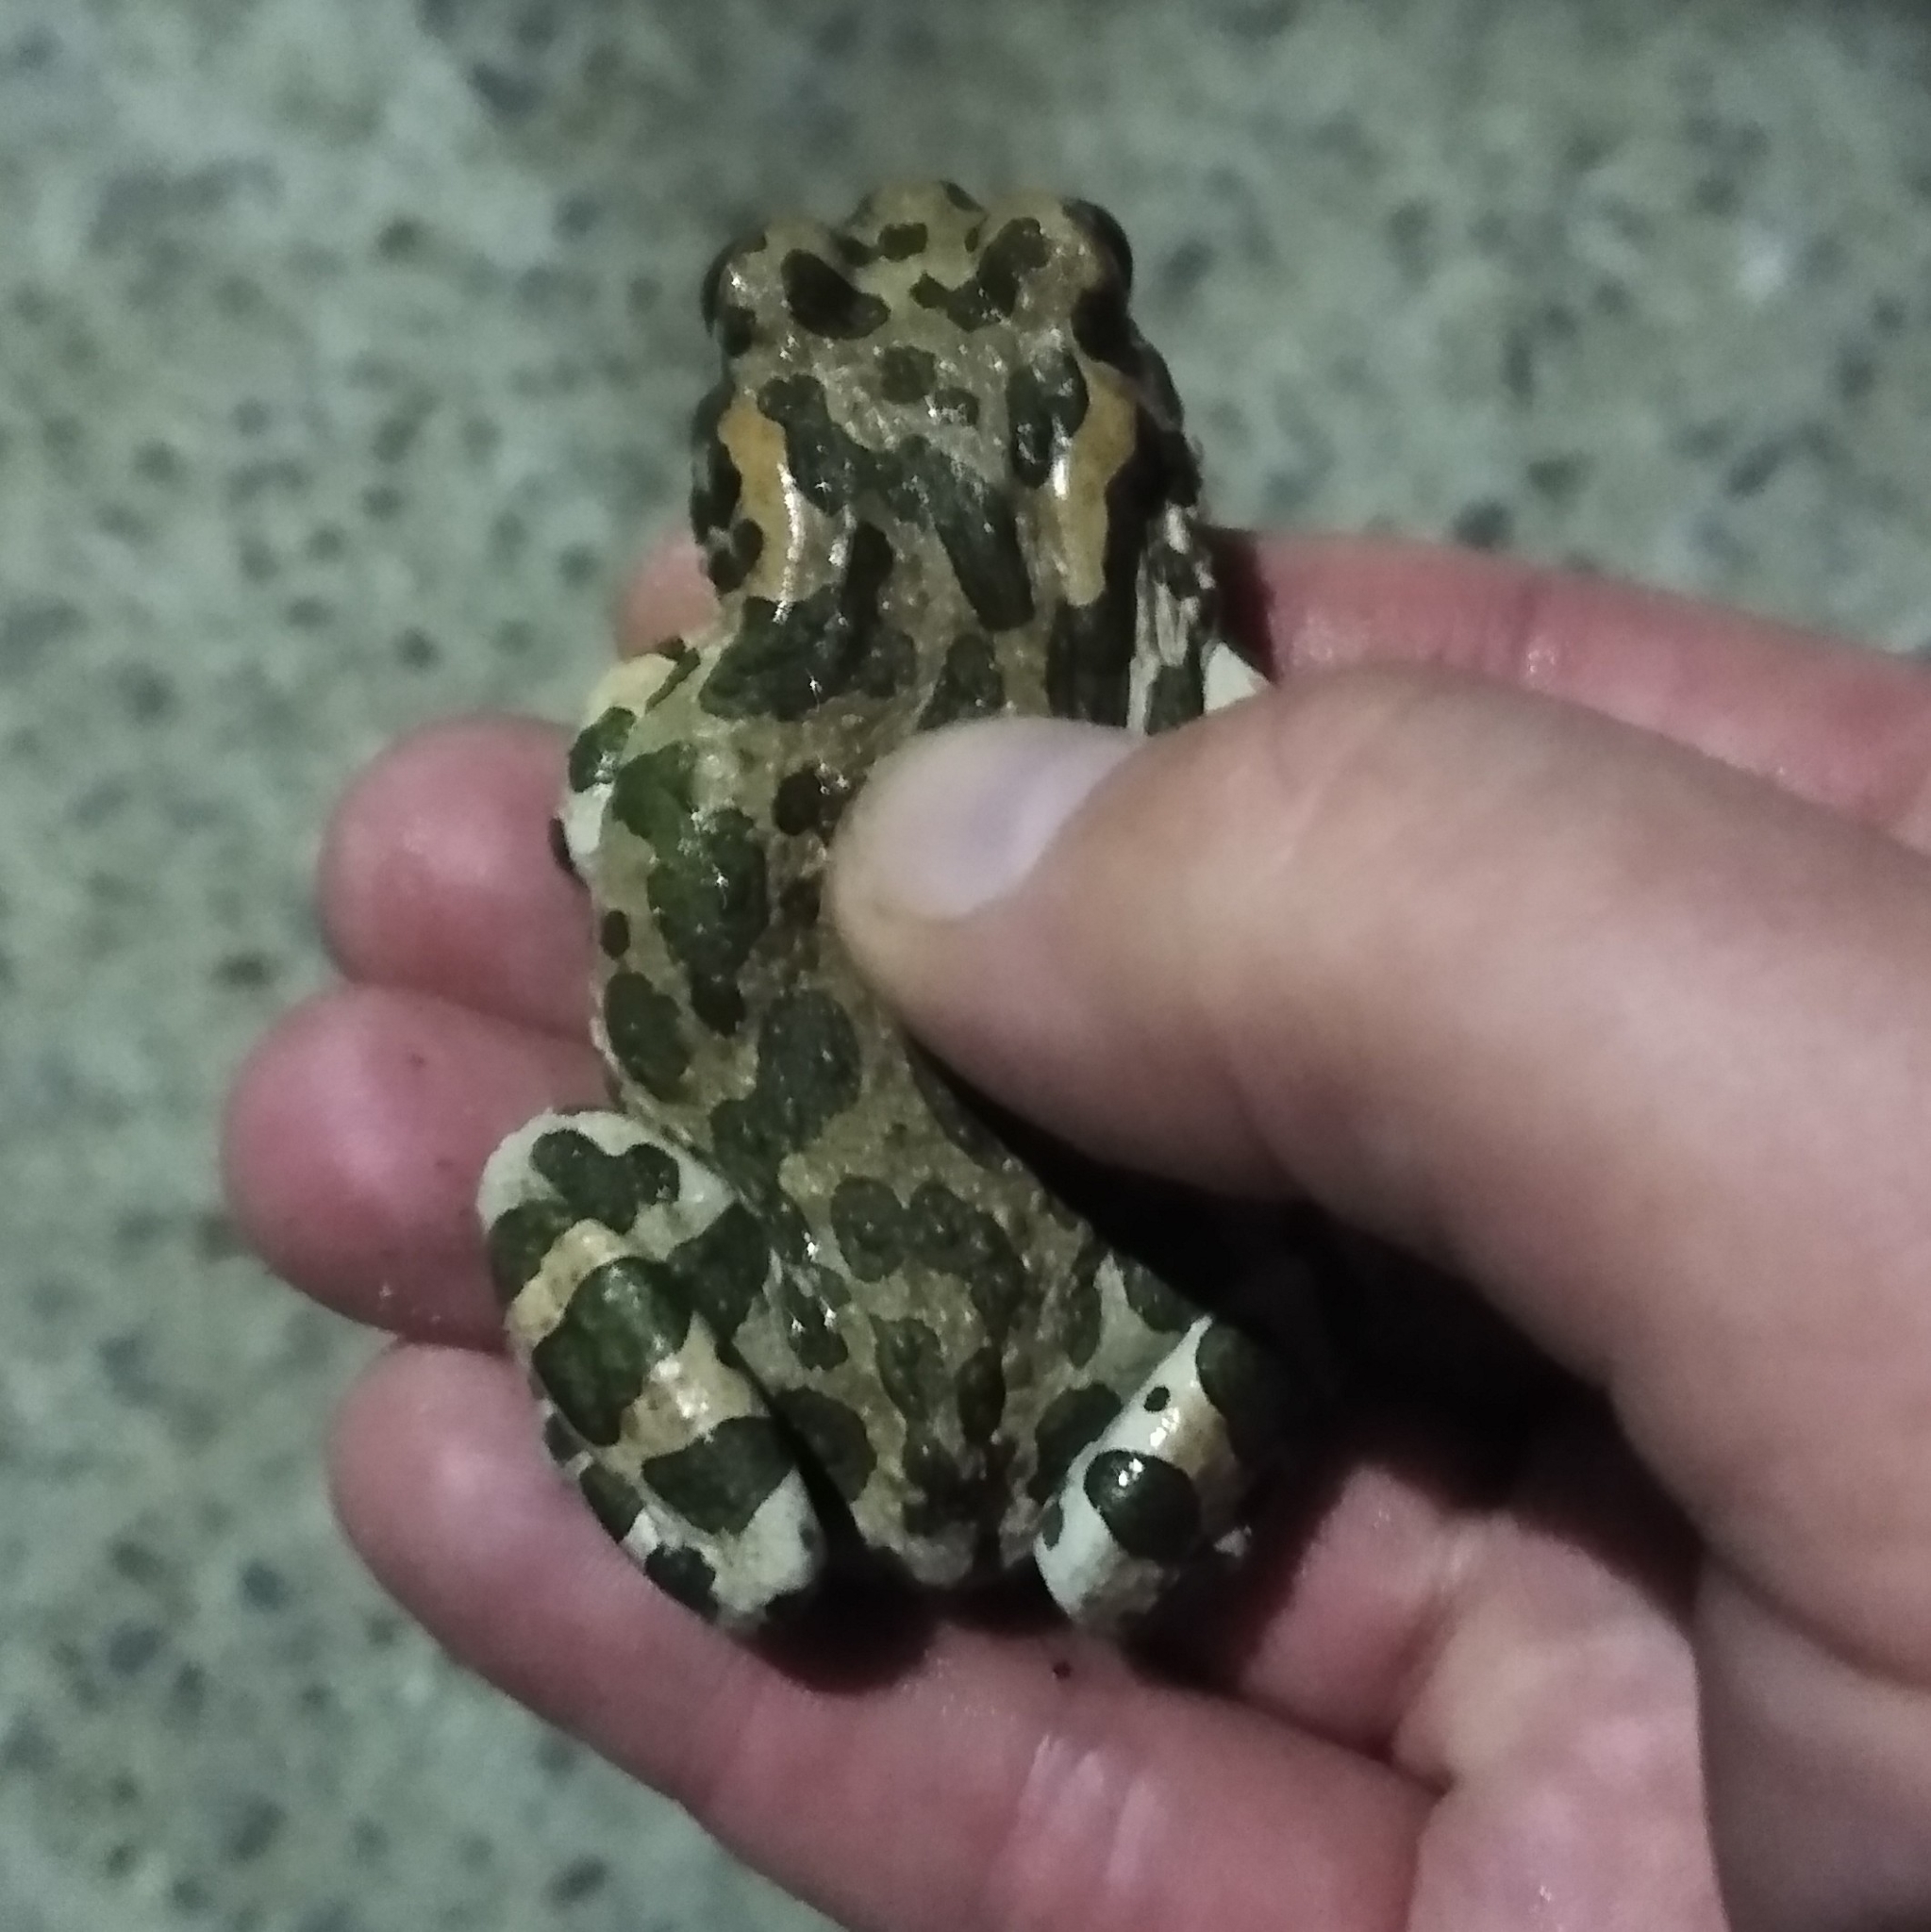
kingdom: Animalia
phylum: Chordata
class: Amphibia
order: Anura
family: Bufonidae
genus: Bufotes
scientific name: Bufotes viridis
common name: European green toad
